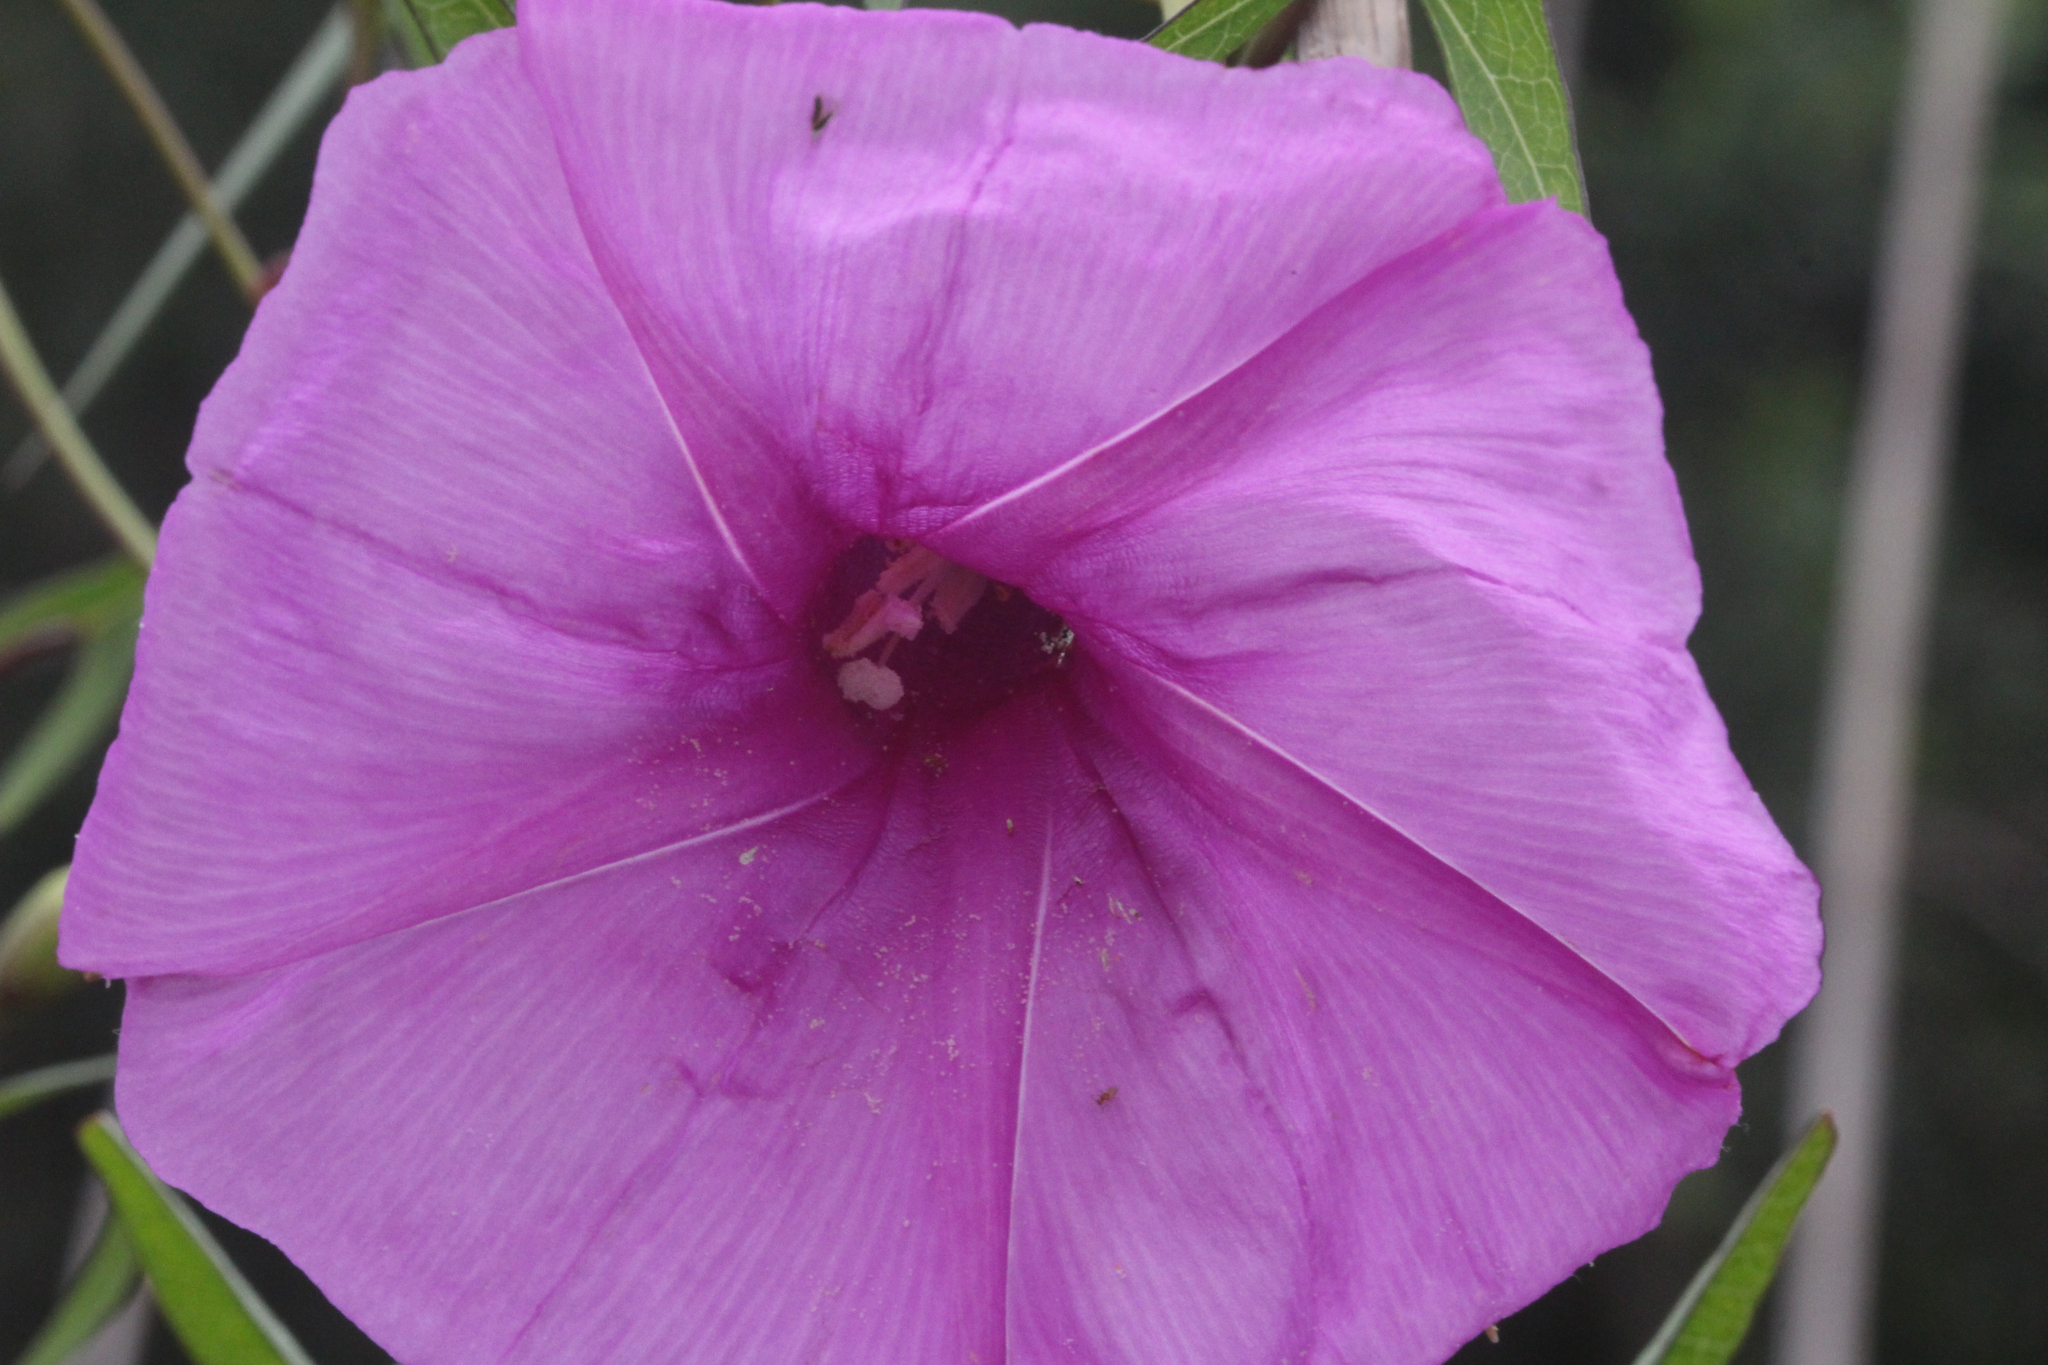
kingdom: Plantae
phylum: Tracheophyta
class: Magnoliopsida
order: Solanales
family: Convolvulaceae
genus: Ipomoea
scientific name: Ipomoea sagittata
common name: Saltmarsh morning glory
